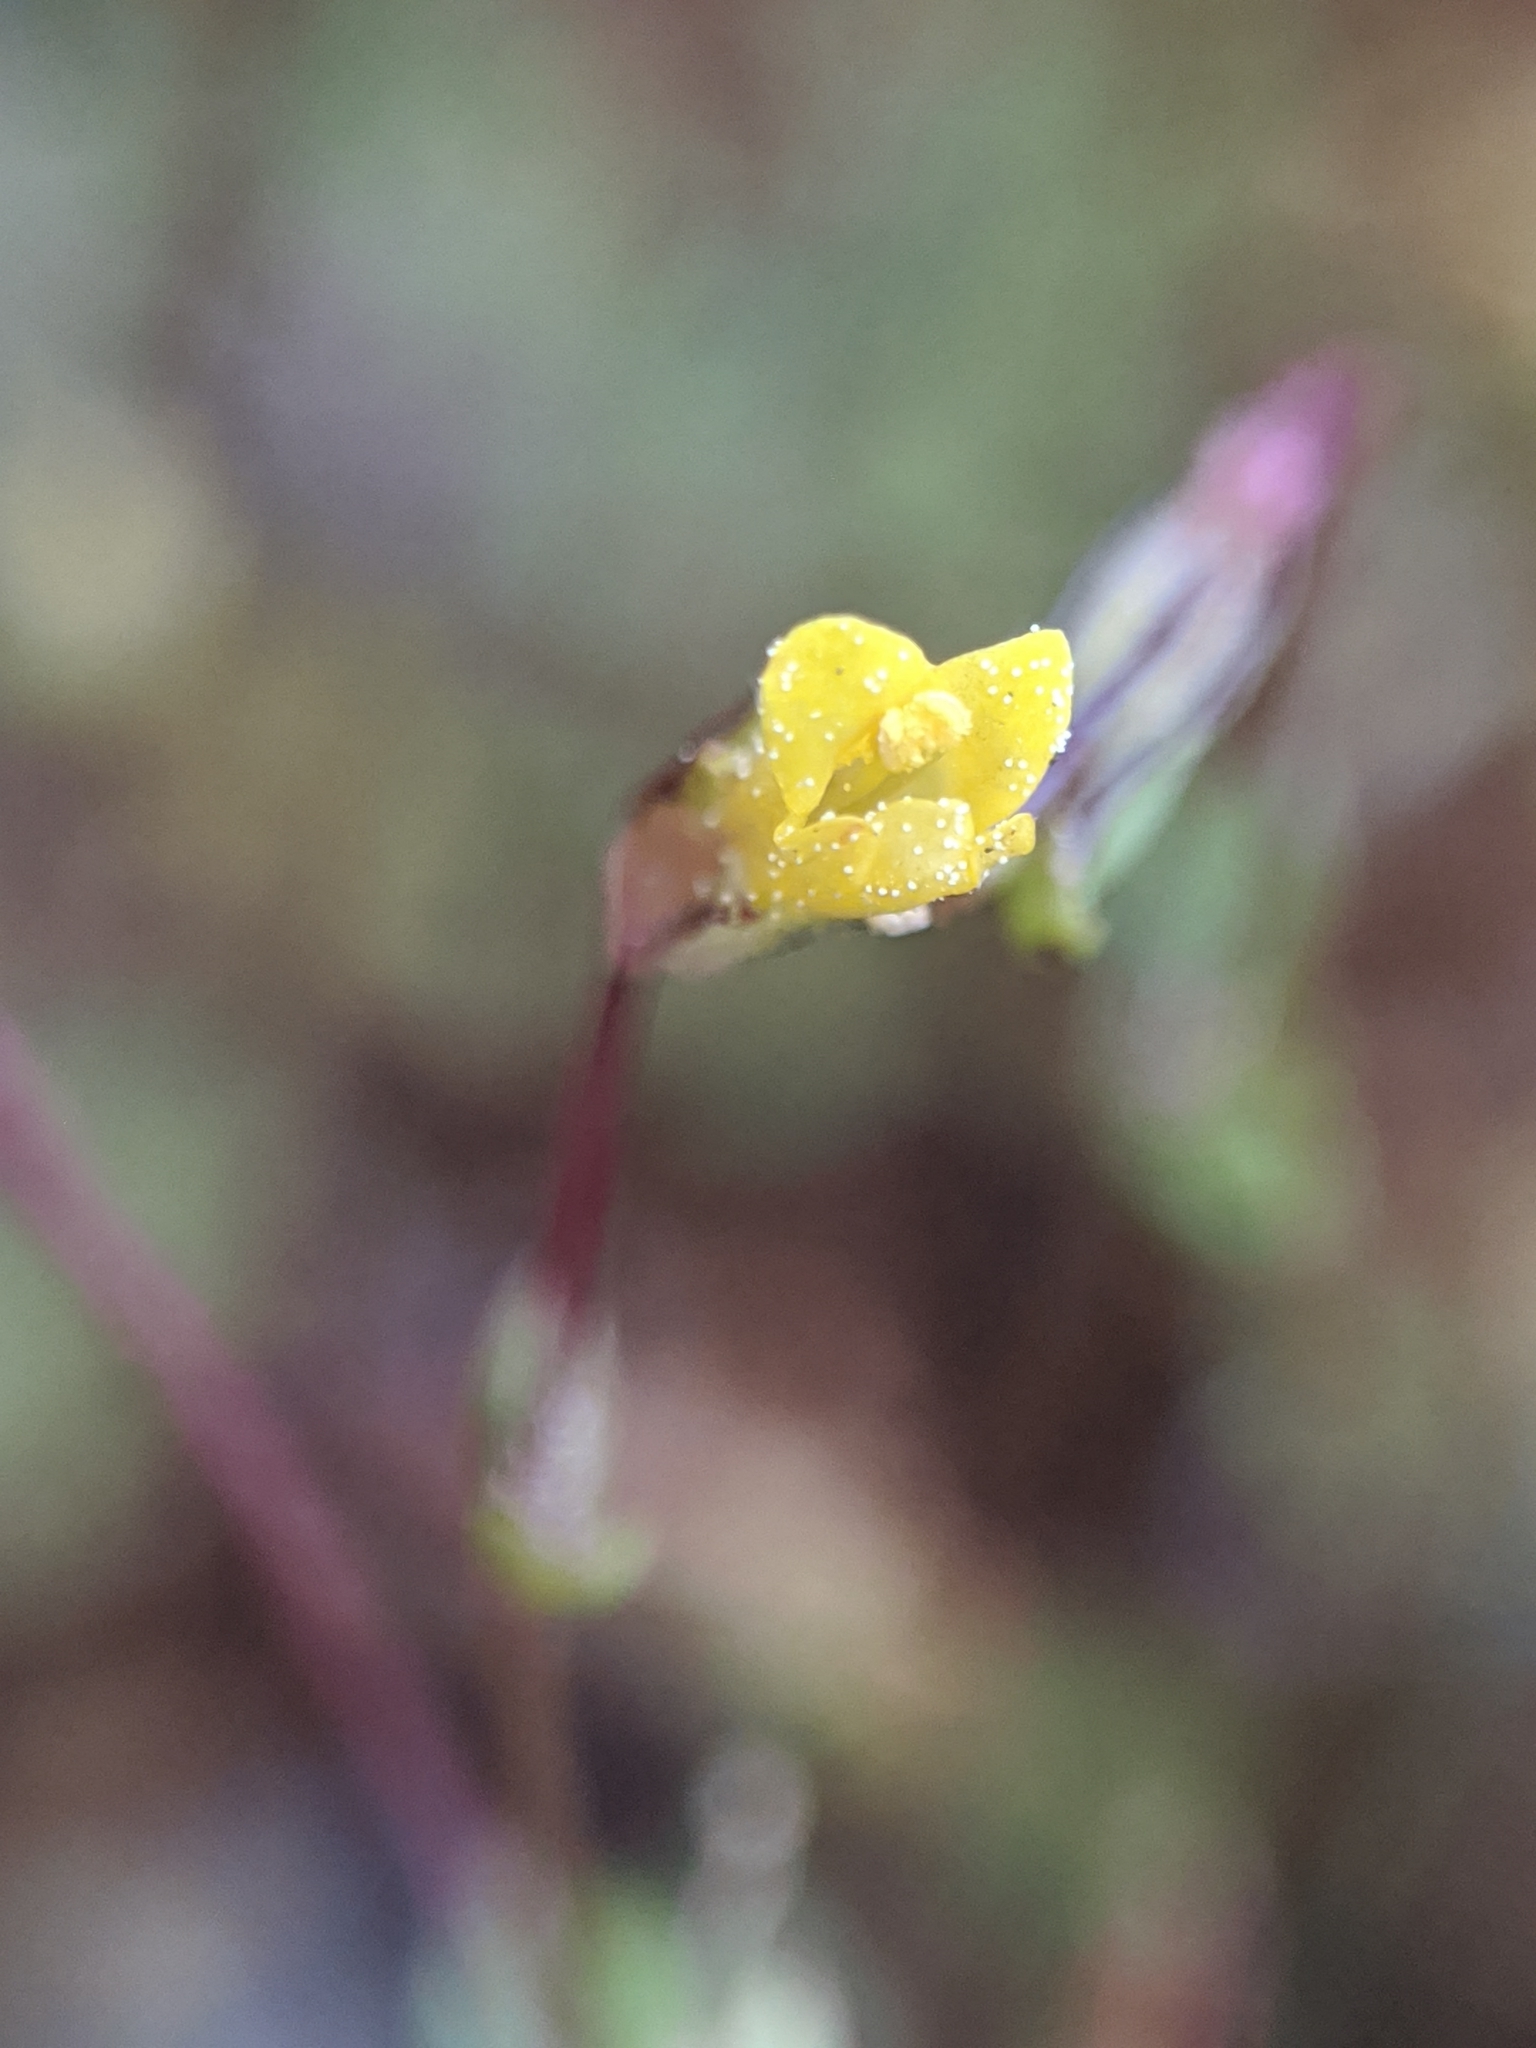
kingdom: Plantae
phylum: Tracheophyta
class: Magnoliopsida
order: Lamiales
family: Phrymaceae
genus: Erythranthe
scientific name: Erythranthe howaldiae
